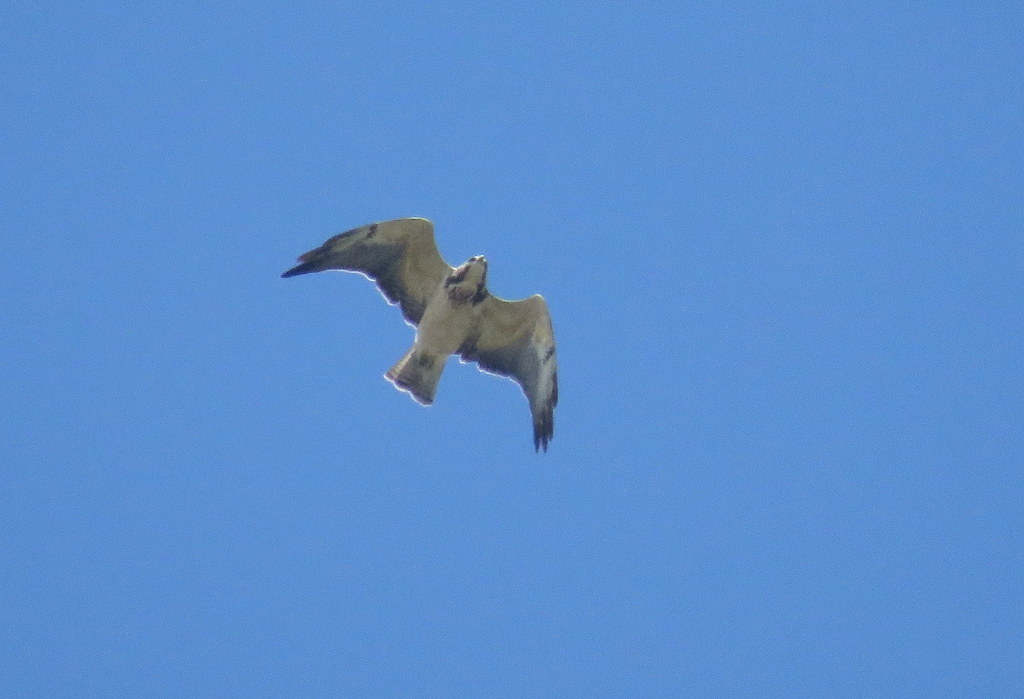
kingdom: Animalia
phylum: Chordata
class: Aves
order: Accipitriformes
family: Accipitridae
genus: Buteo
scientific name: Buteo swainsoni
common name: Swainson's hawk
